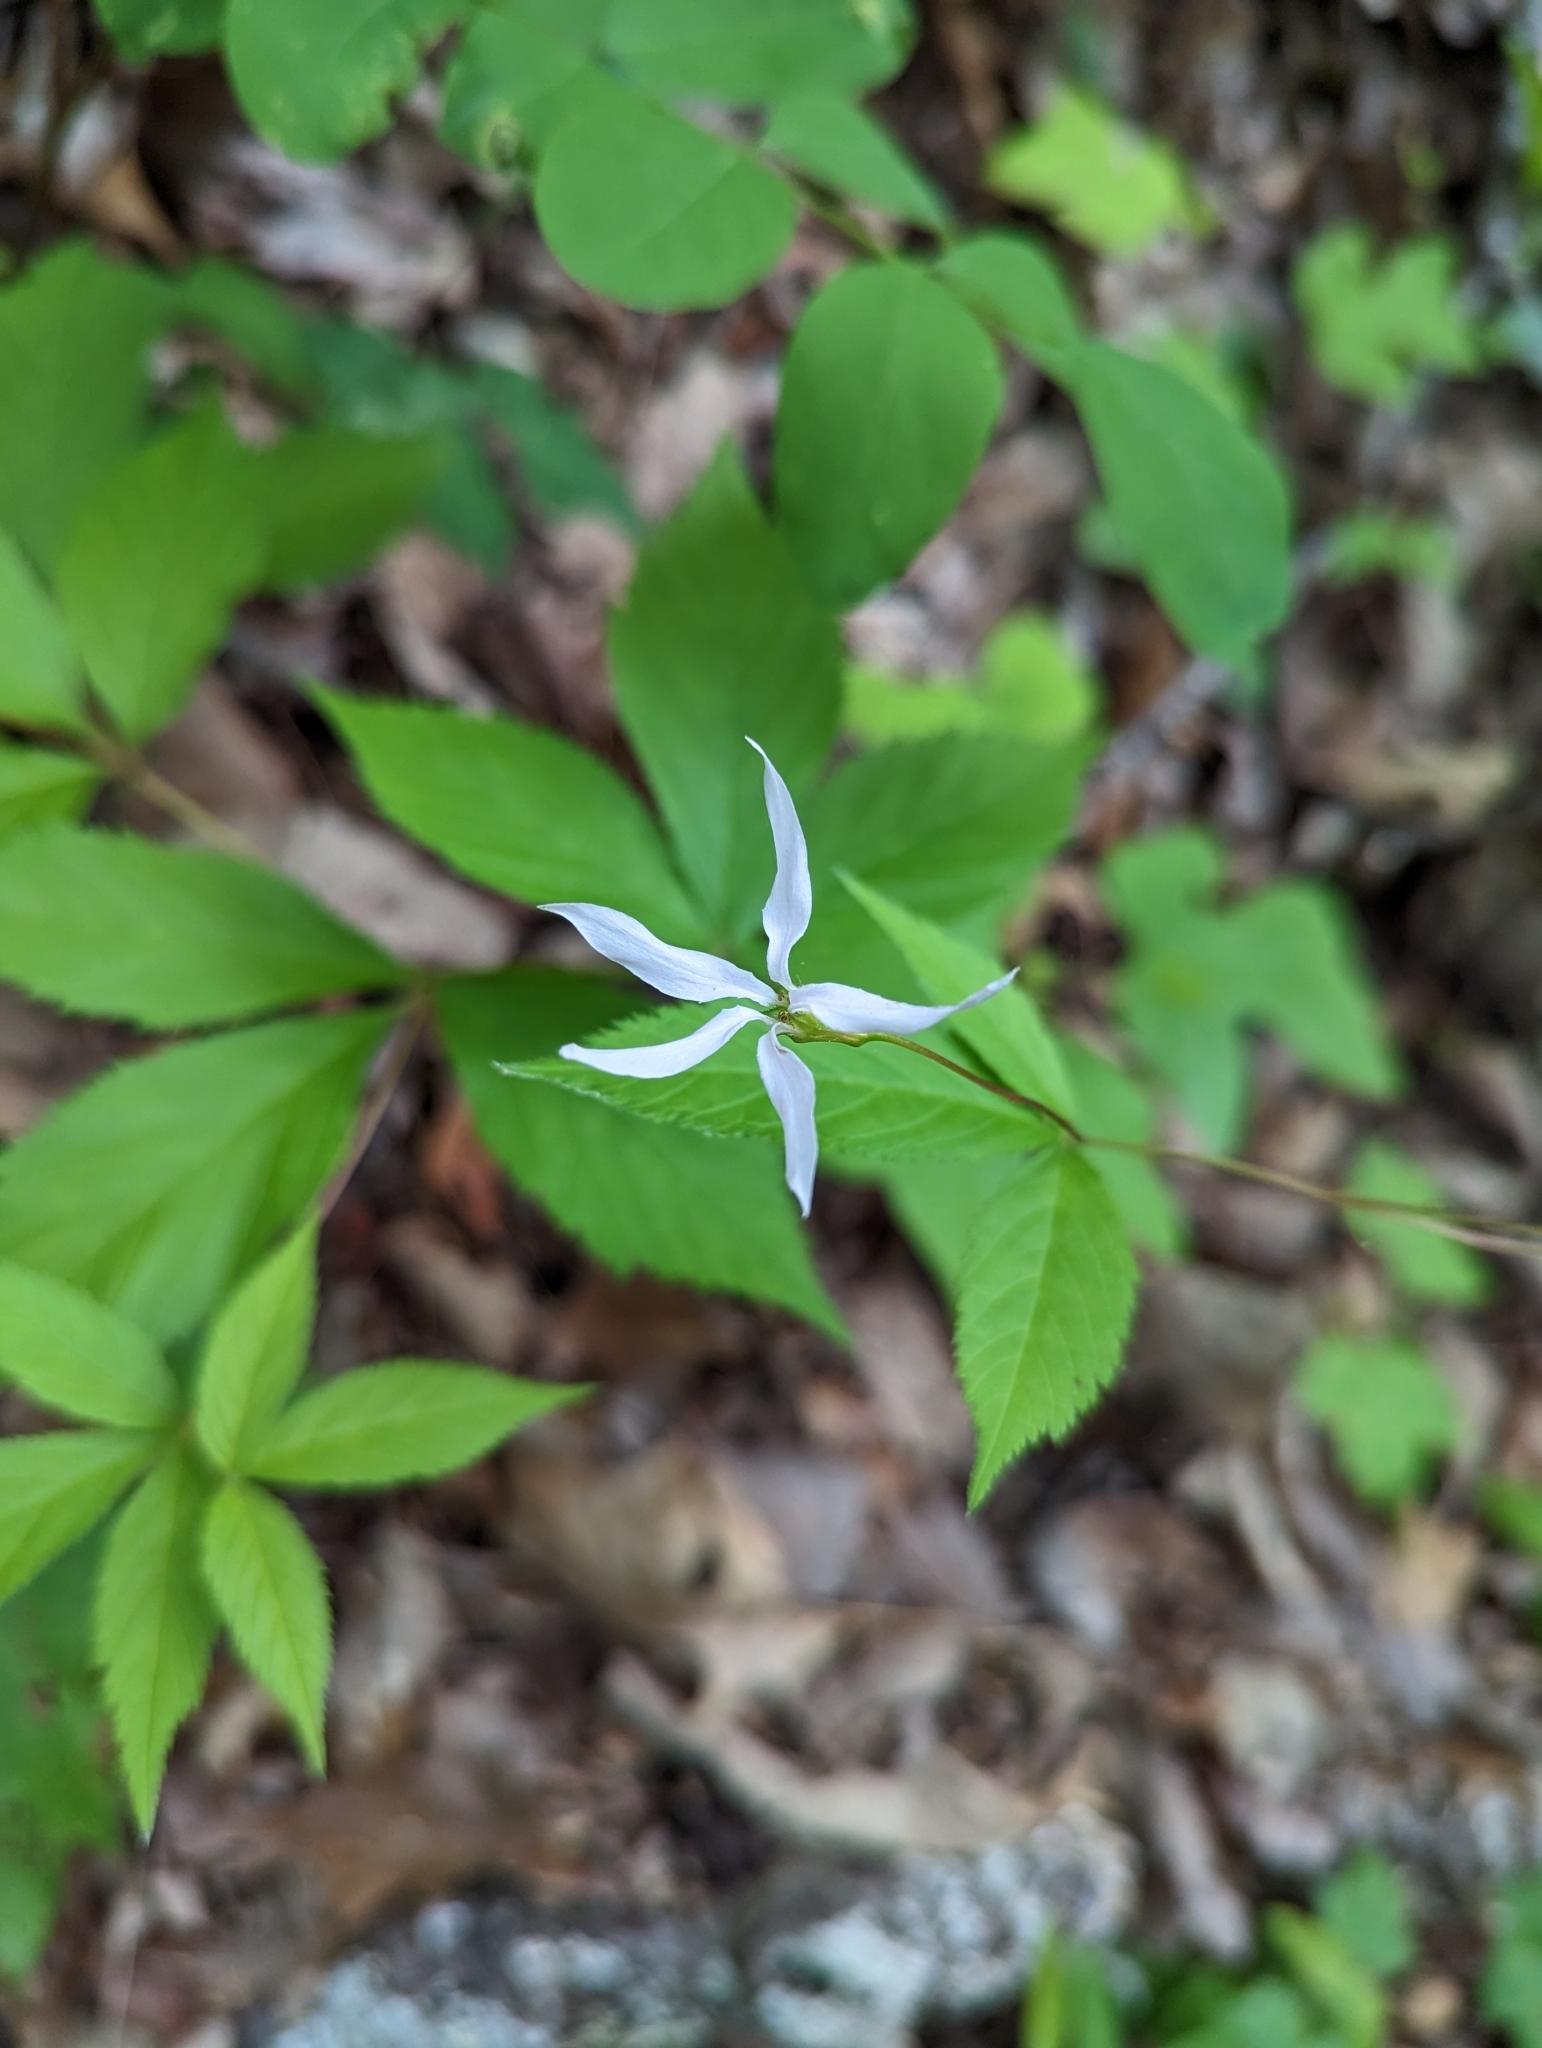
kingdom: Plantae
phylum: Tracheophyta
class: Magnoliopsida
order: Rosales
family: Rosaceae
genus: Gillenia
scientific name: Gillenia trifoliata
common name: Bowman's-root
